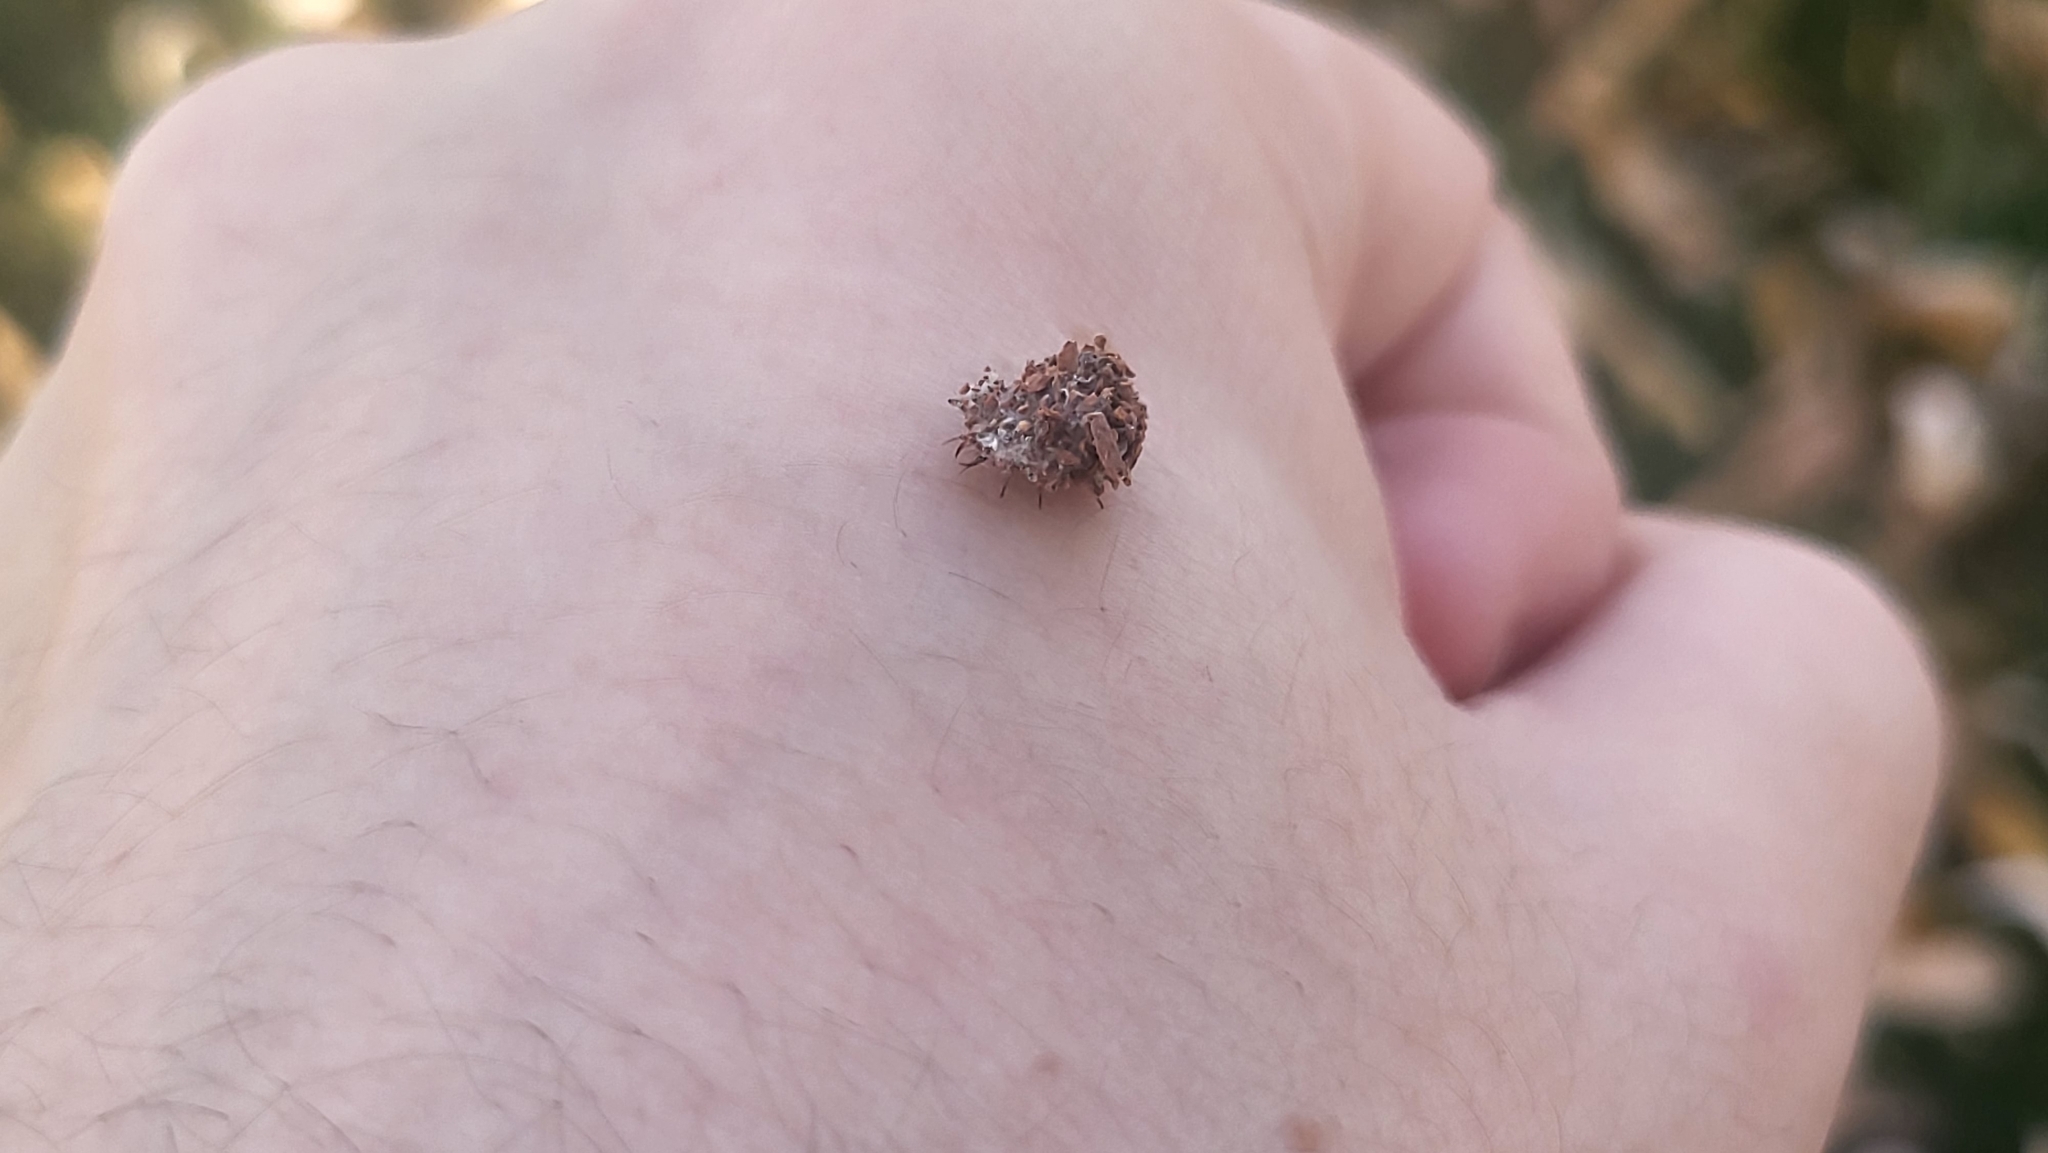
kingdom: Animalia
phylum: Arthropoda
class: Insecta
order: Neuroptera
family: Chrysopidae
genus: Leucochrysa
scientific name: Leucochrysa pavida
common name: Lichen-carrying green lacewing
